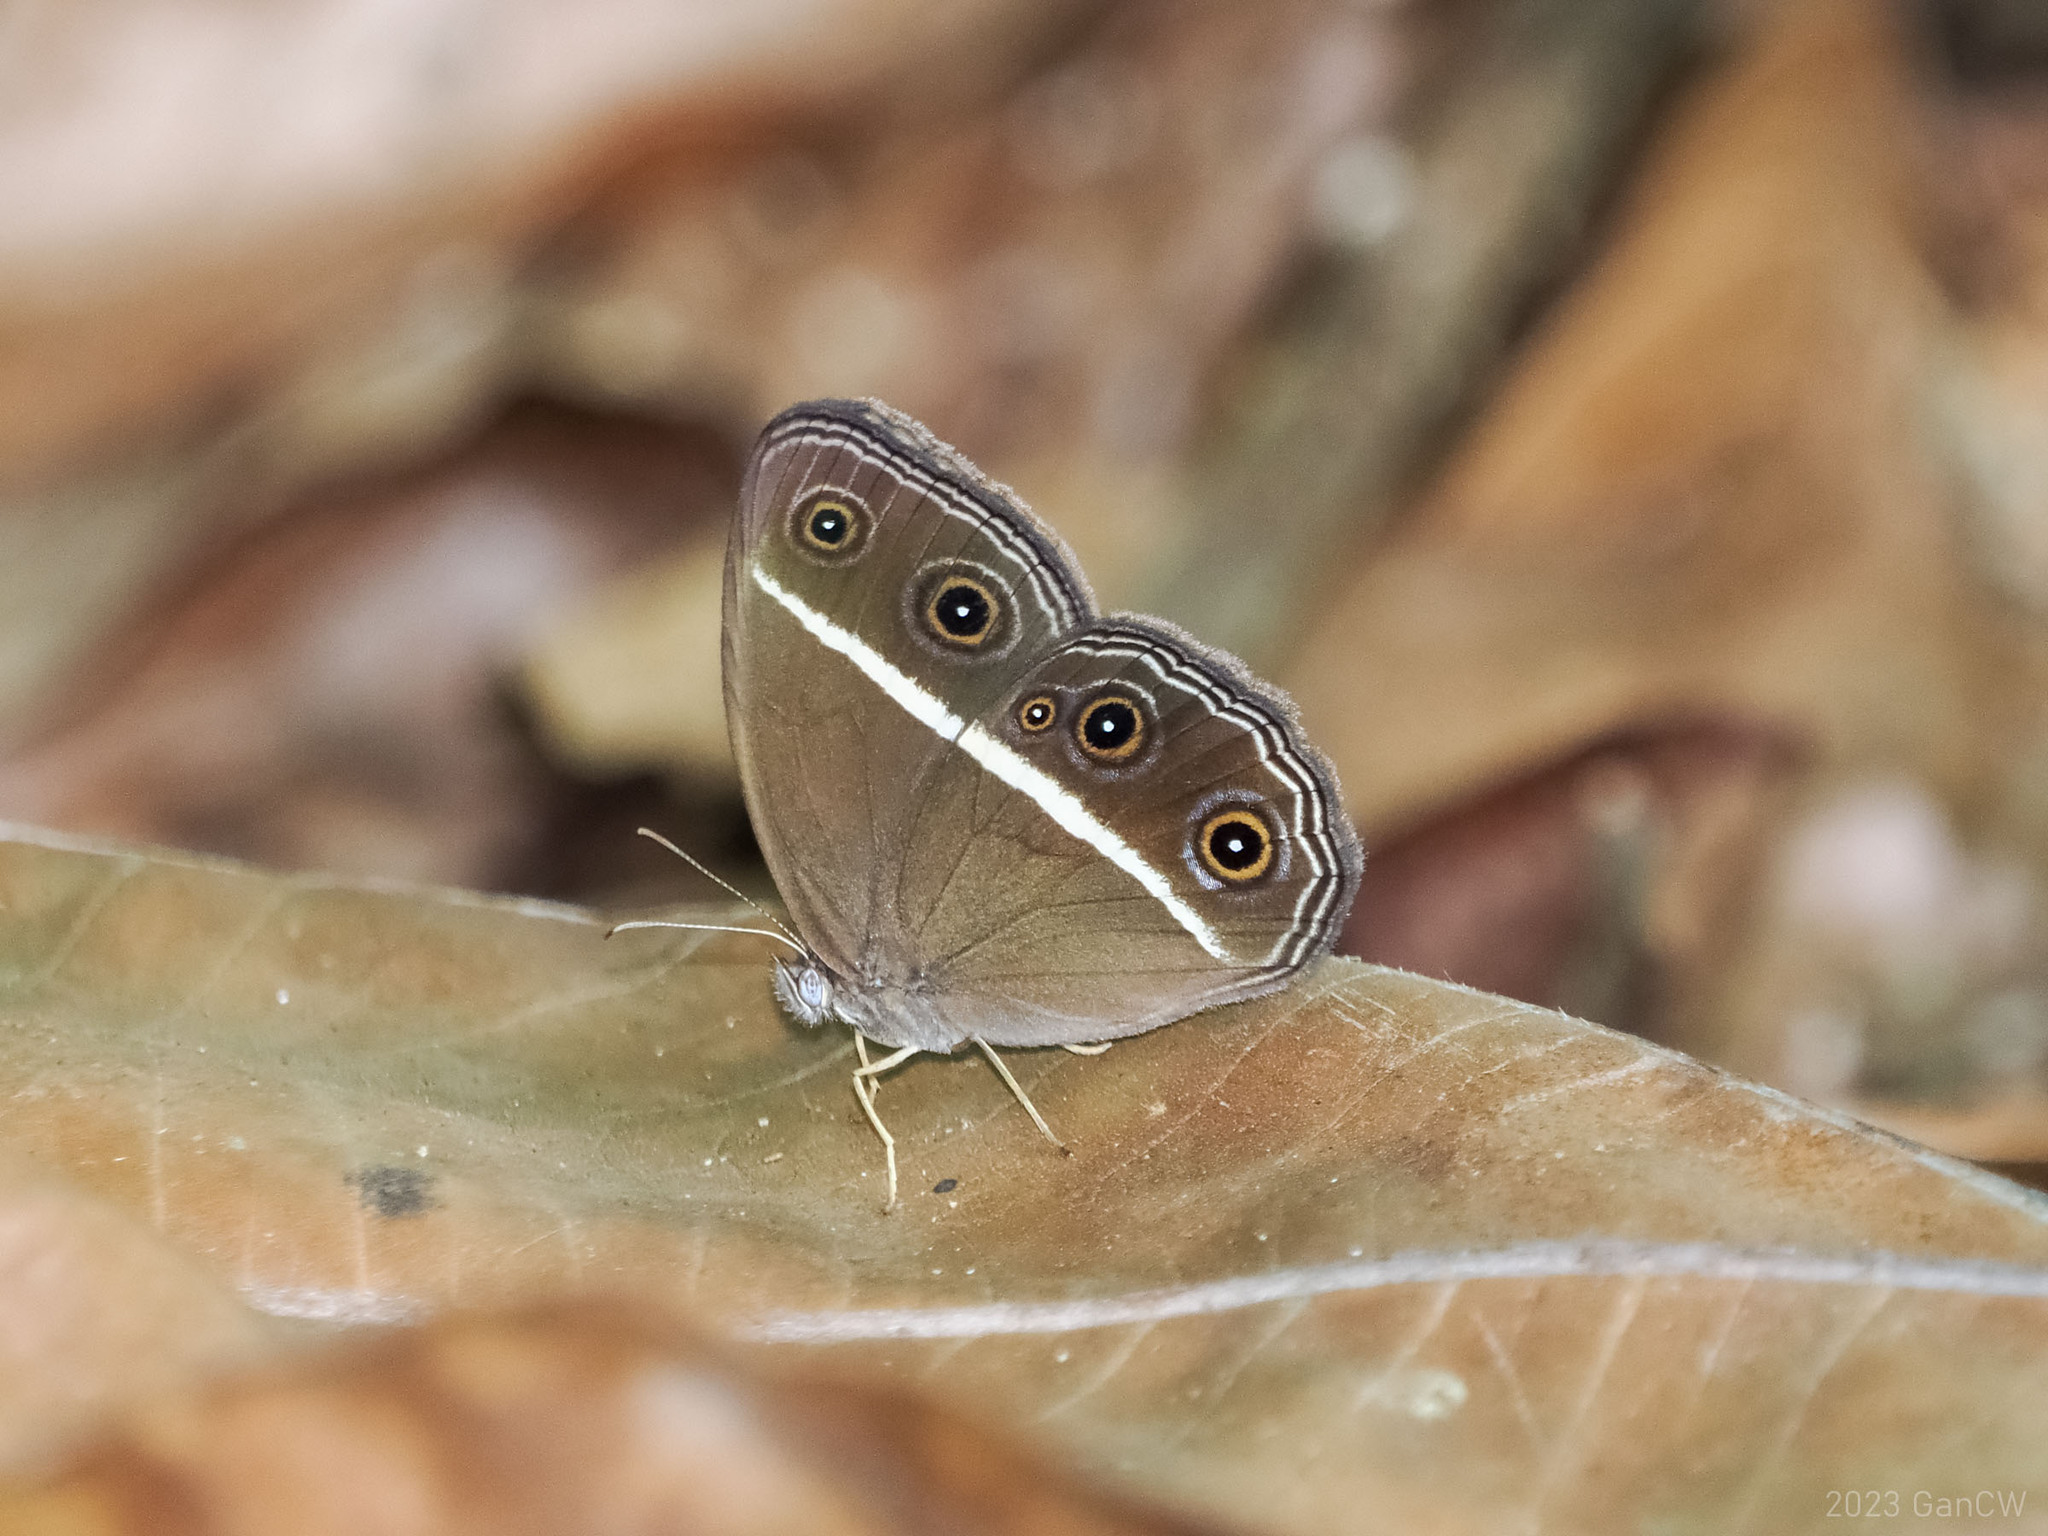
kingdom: Animalia
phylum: Arthropoda
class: Insecta
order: Lepidoptera
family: Nymphalidae
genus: Orsotriaena
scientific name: Orsotriaena medus
